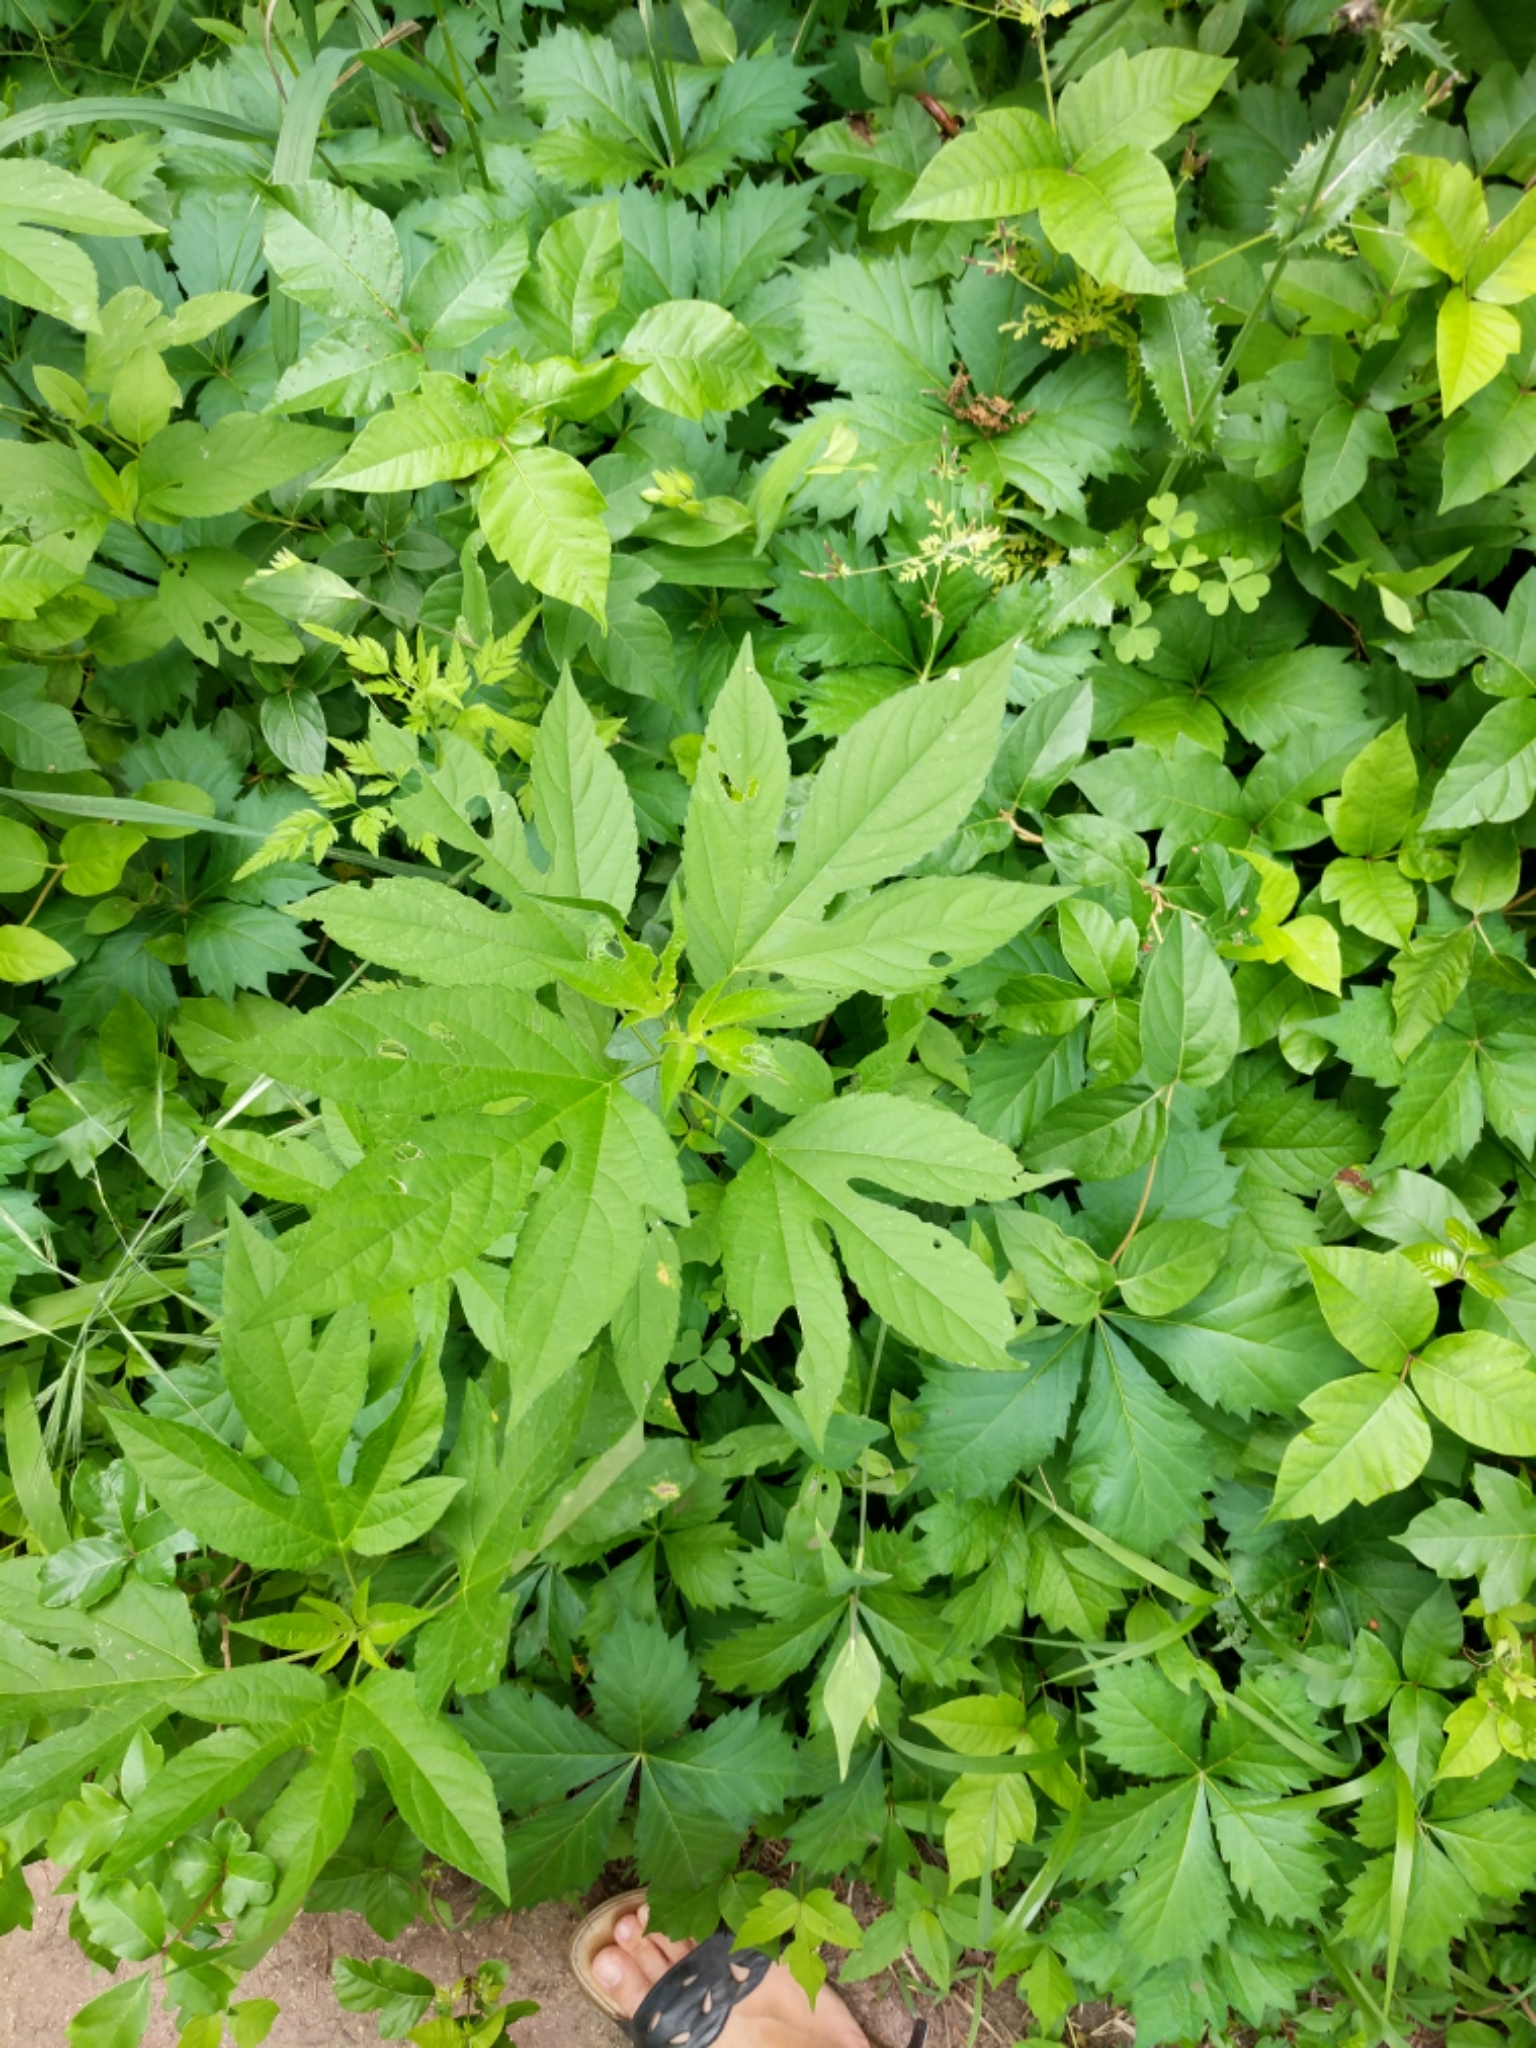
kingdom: Plantae
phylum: Tracheophyta
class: Magnoliopsida
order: Asterales
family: Asteraceae
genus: Ambrosia
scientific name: Ambrosia trifida
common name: Giant ragweed
